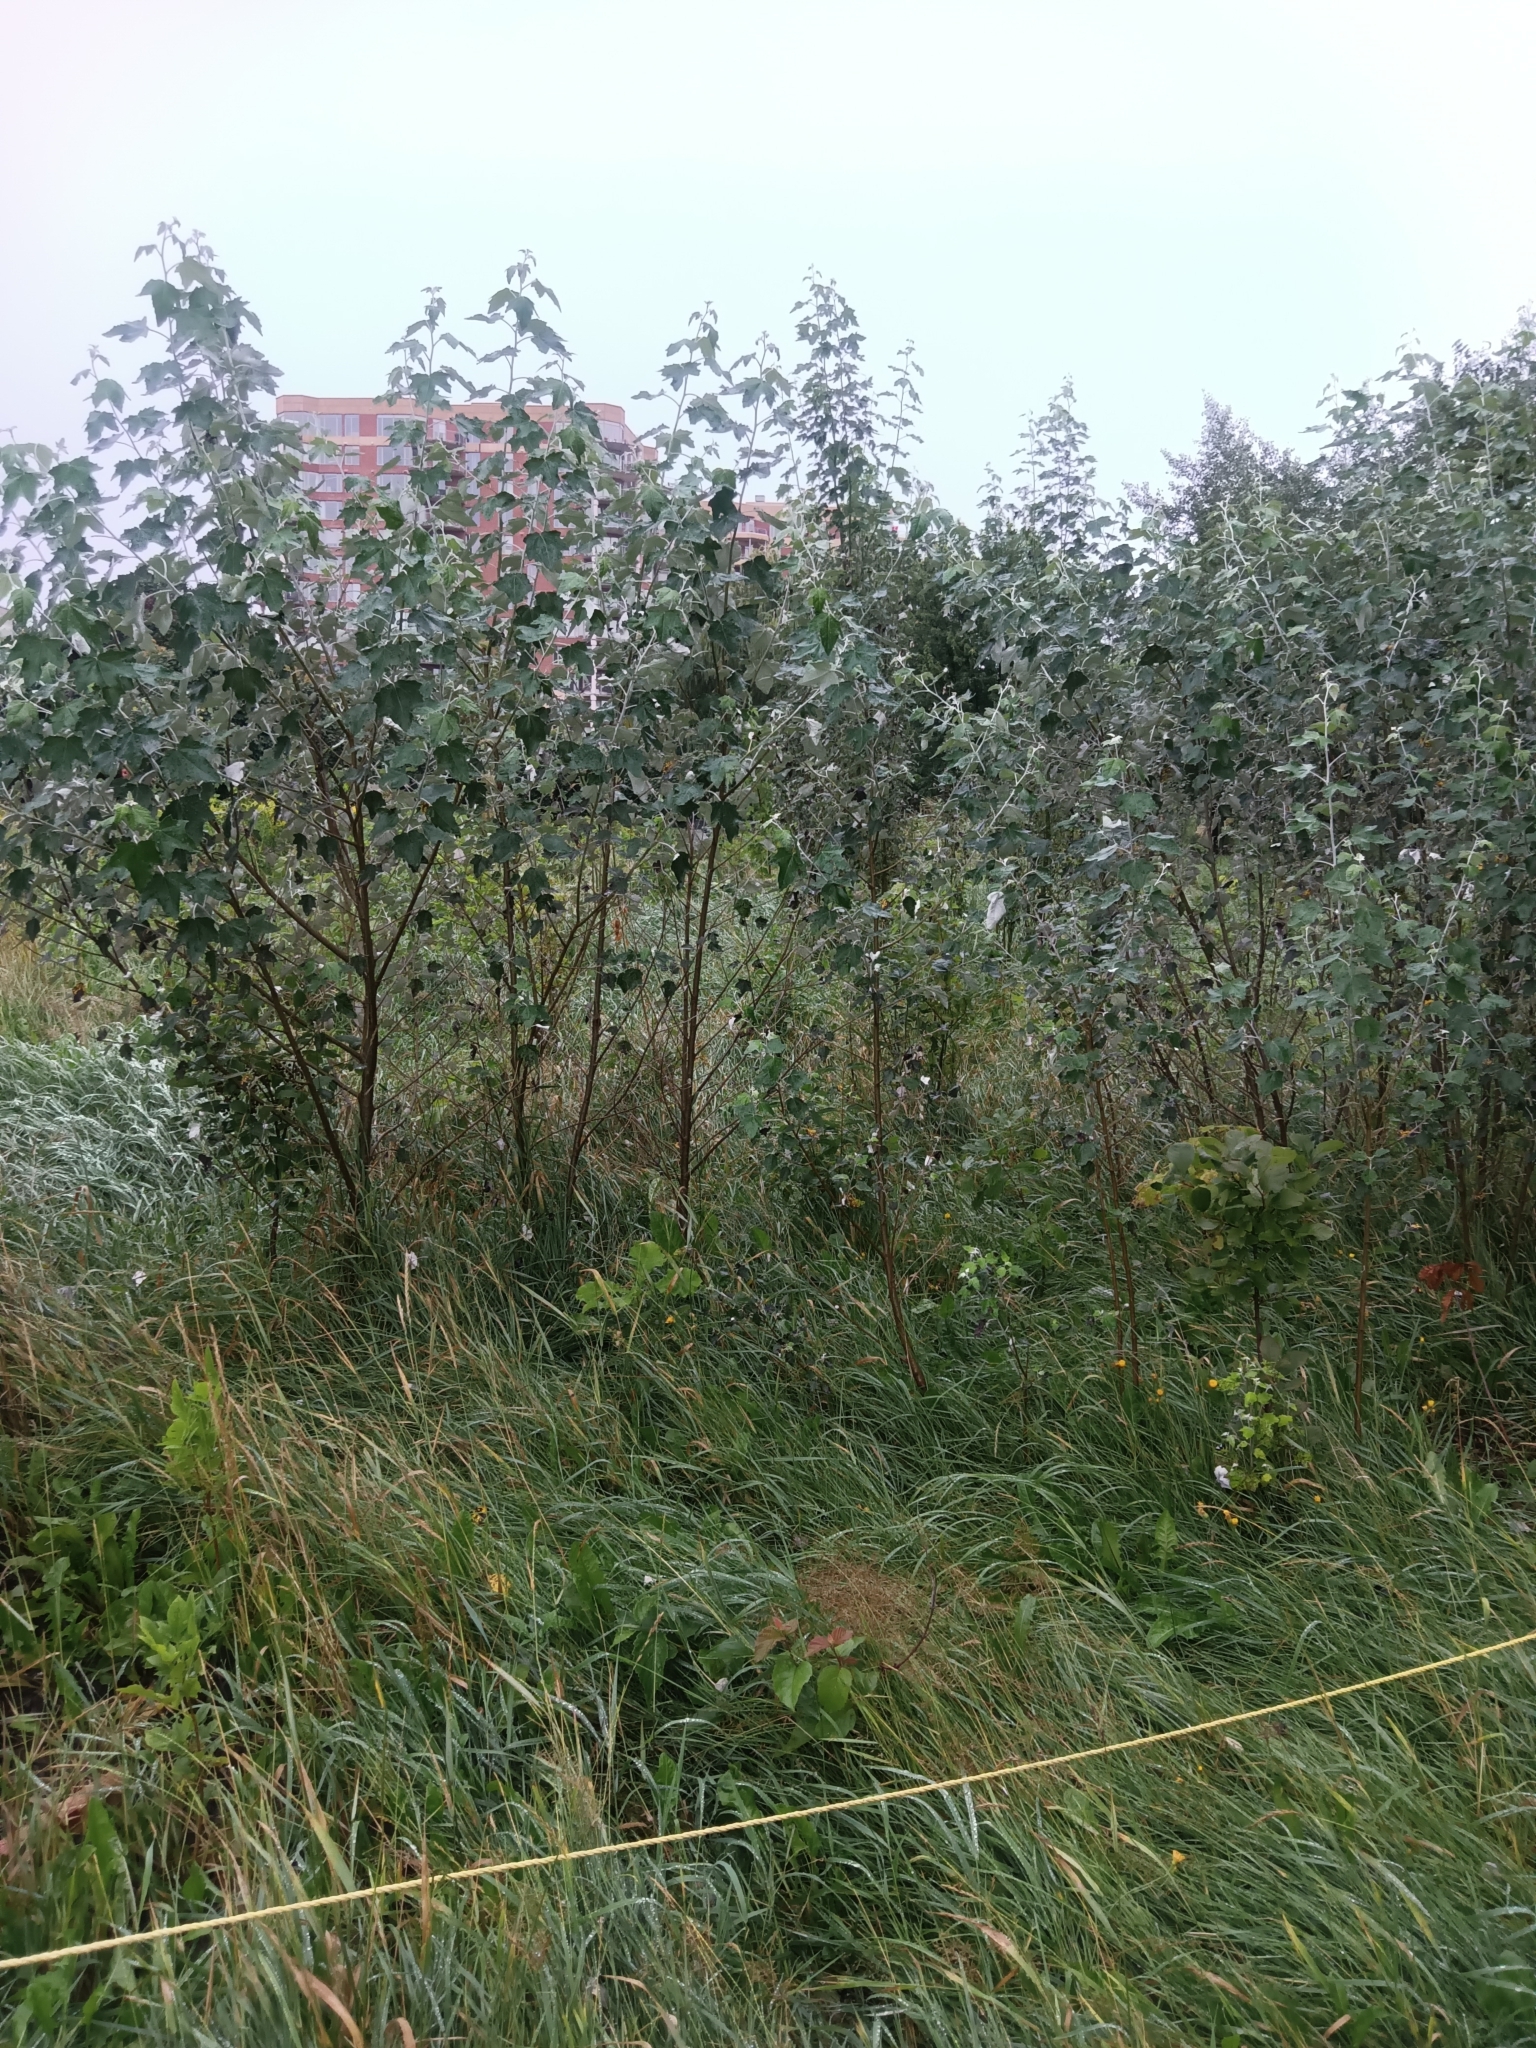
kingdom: Plantae
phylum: Tracheophyta
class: Magnoliopsida
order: Malpighiales
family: Salicaceae
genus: Populus
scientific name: Populus alba
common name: White poplar
